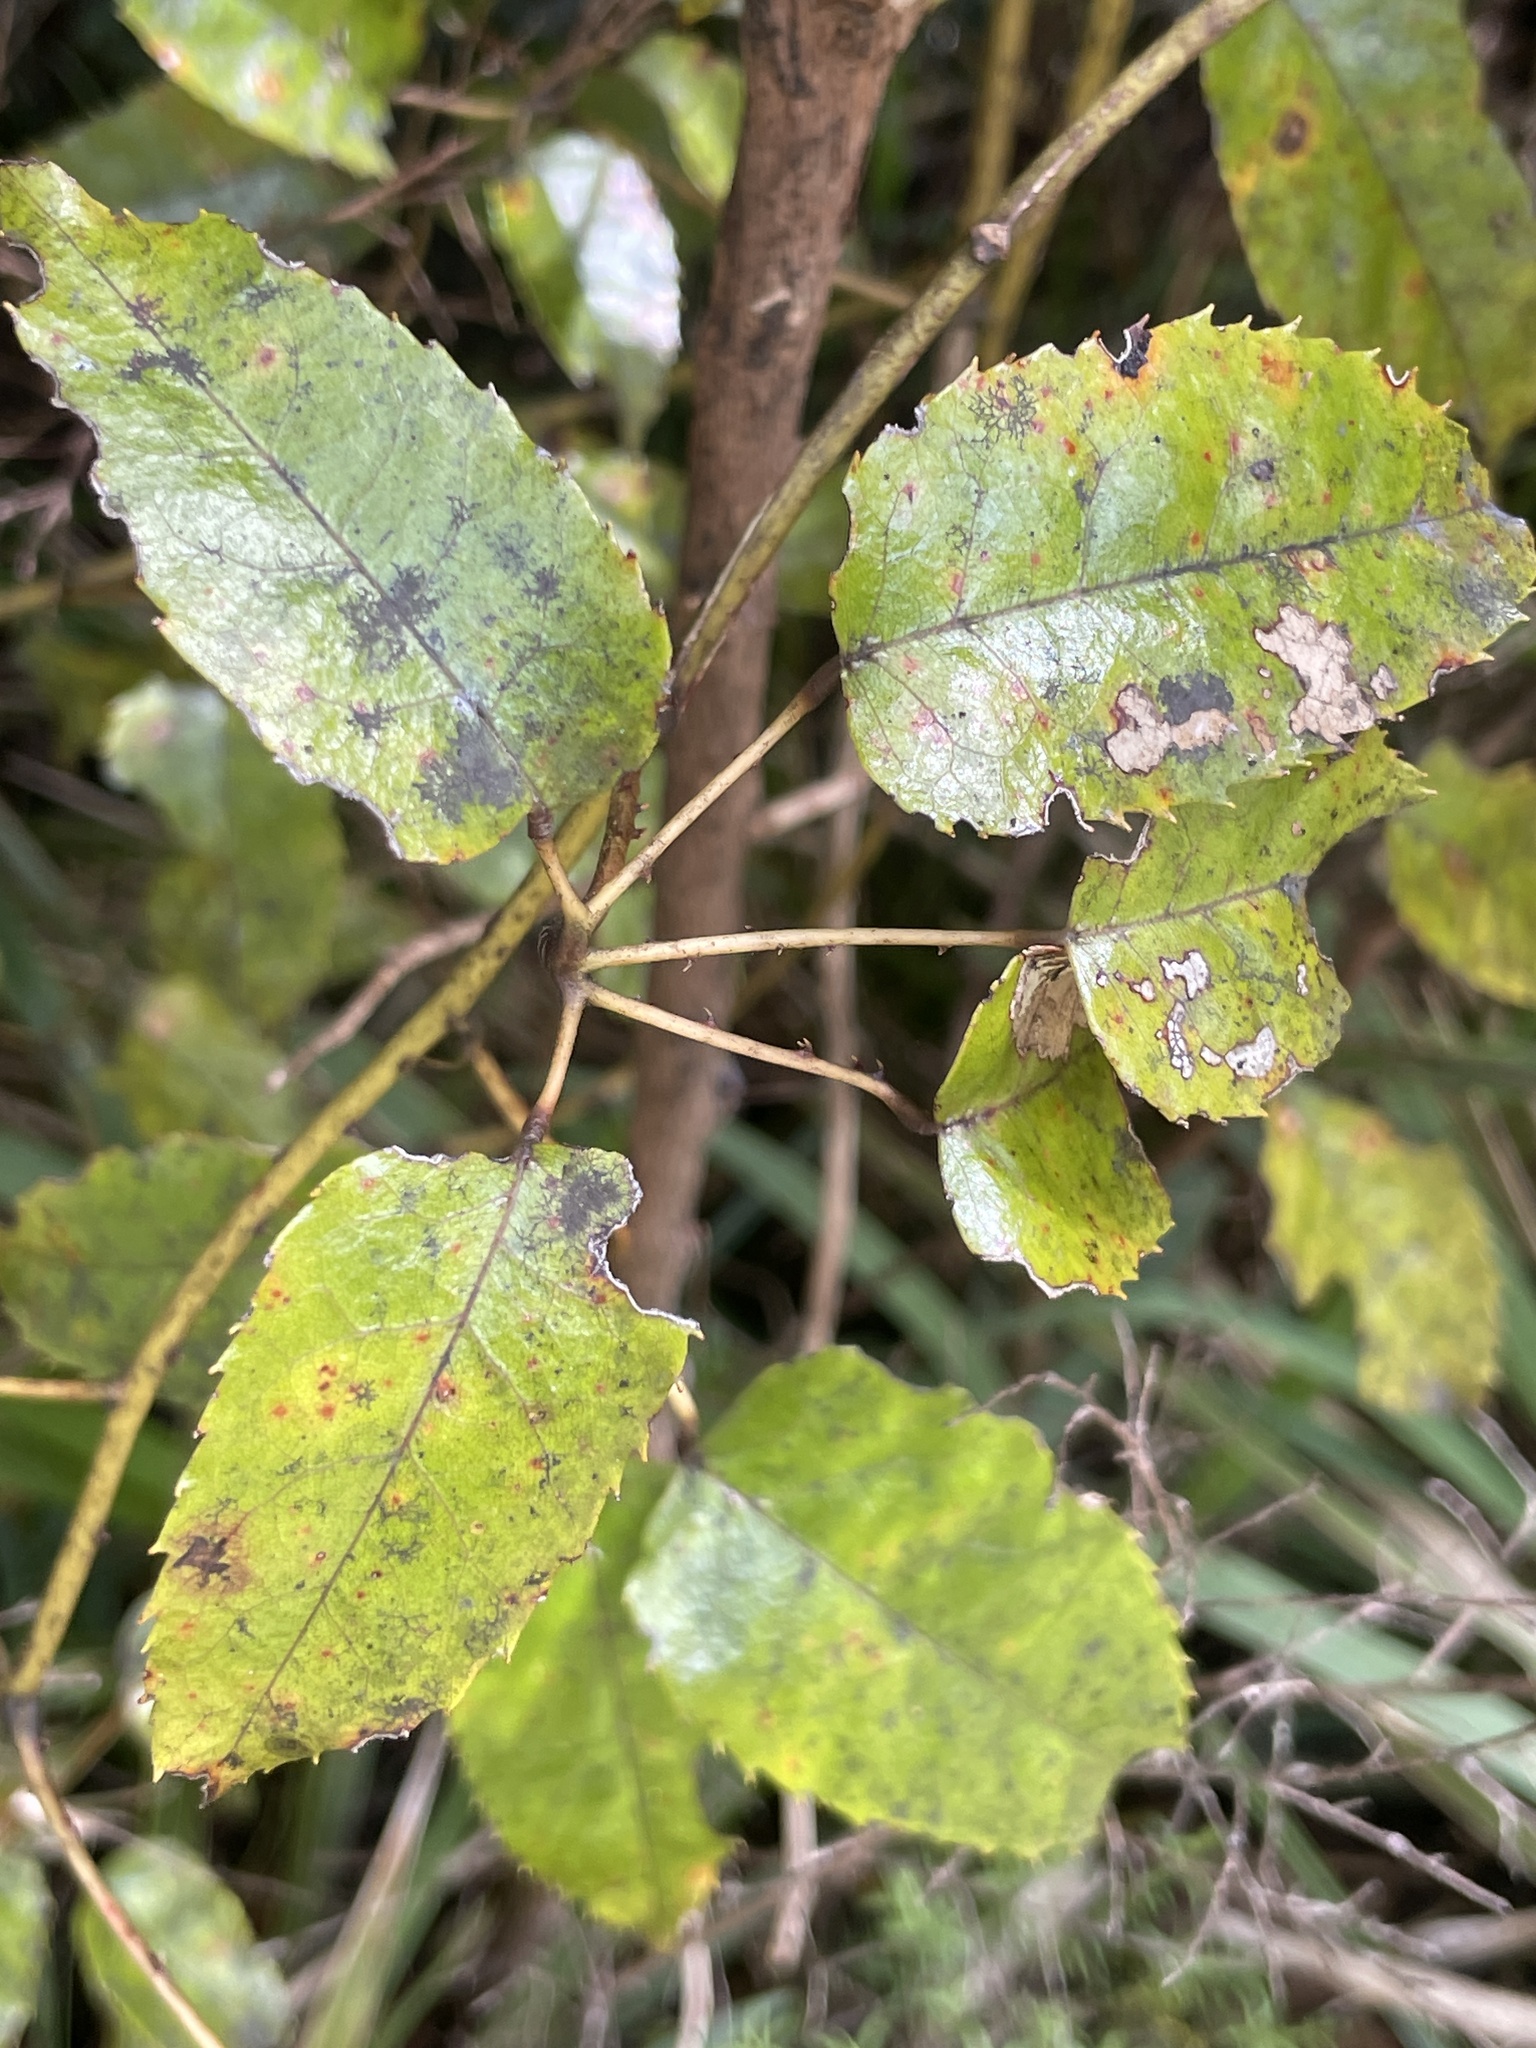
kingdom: Plantae
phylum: Tracheophyta
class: Magnoliopsida
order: Rosales
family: Rosaceae
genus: Rubus
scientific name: Rubus cissoides
